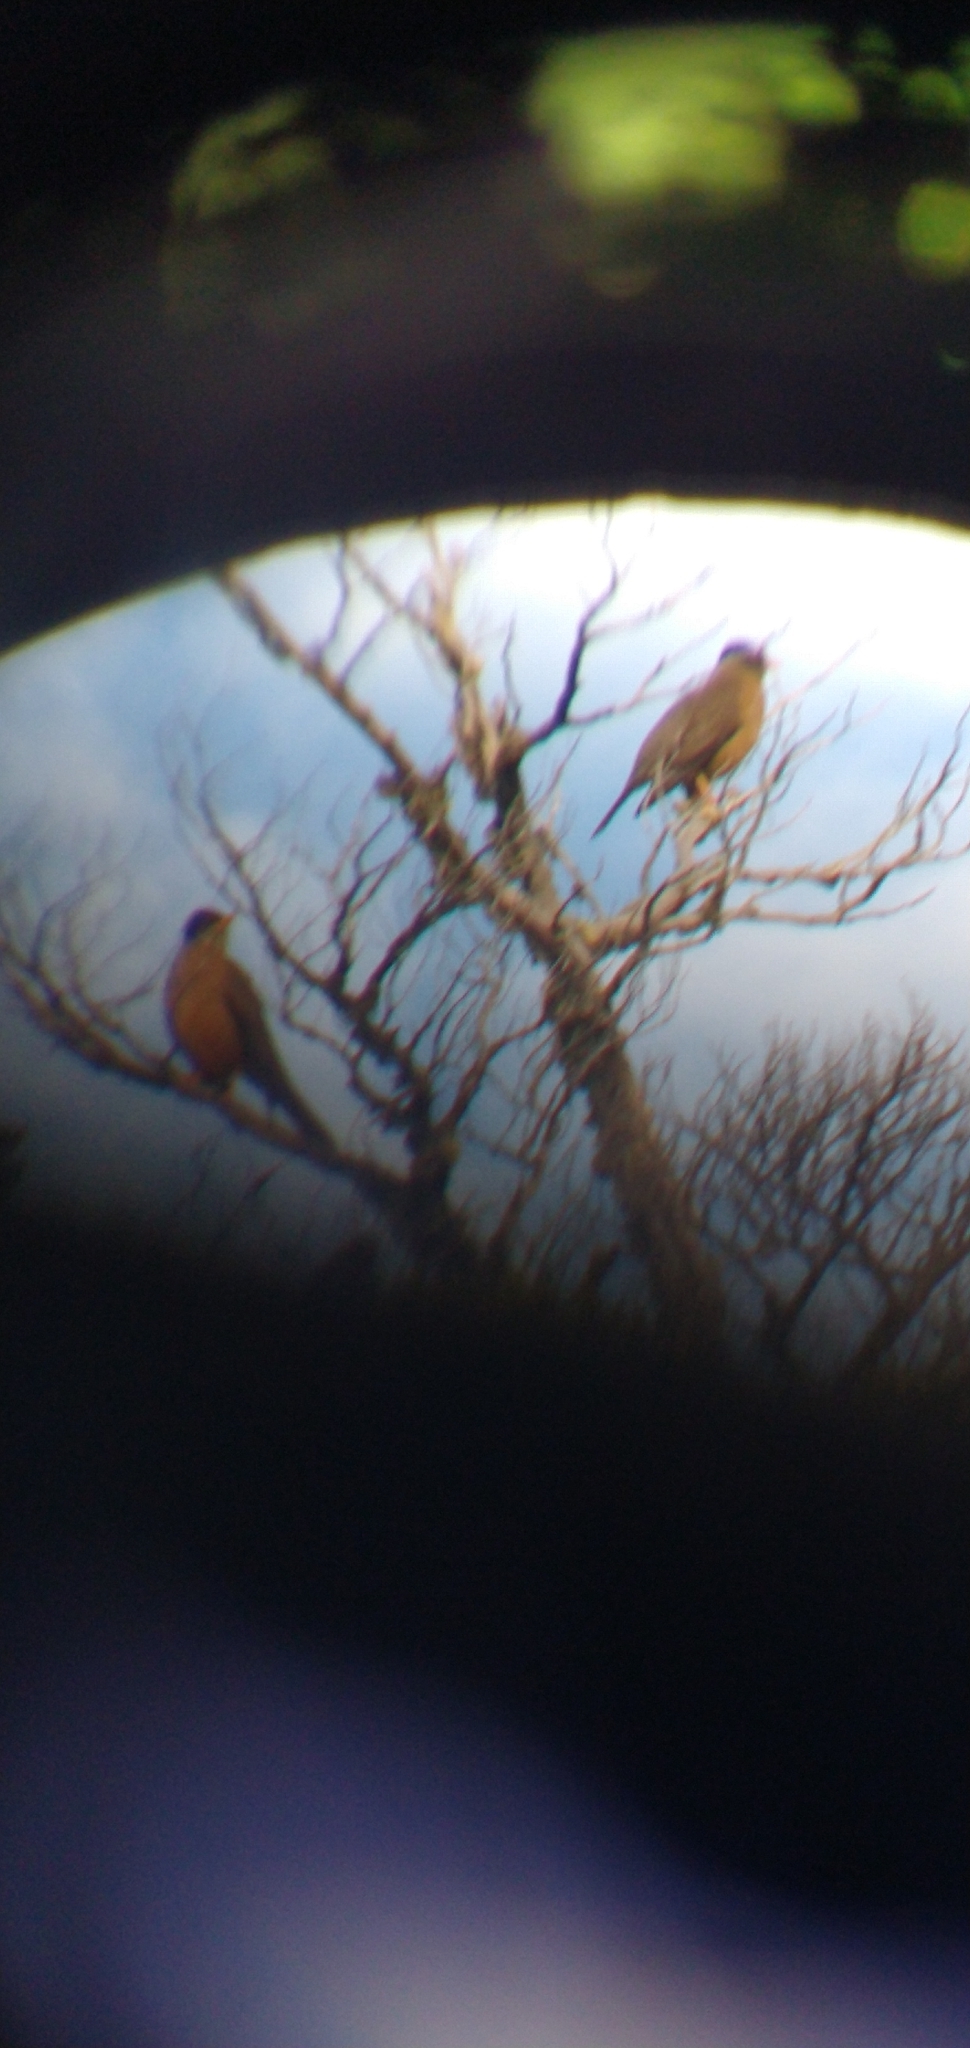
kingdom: Animalia
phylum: Chordata
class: Aves
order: Passeriformes
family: Turdidae
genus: Turdus
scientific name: Turdus falcklandii
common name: Austral thrush
